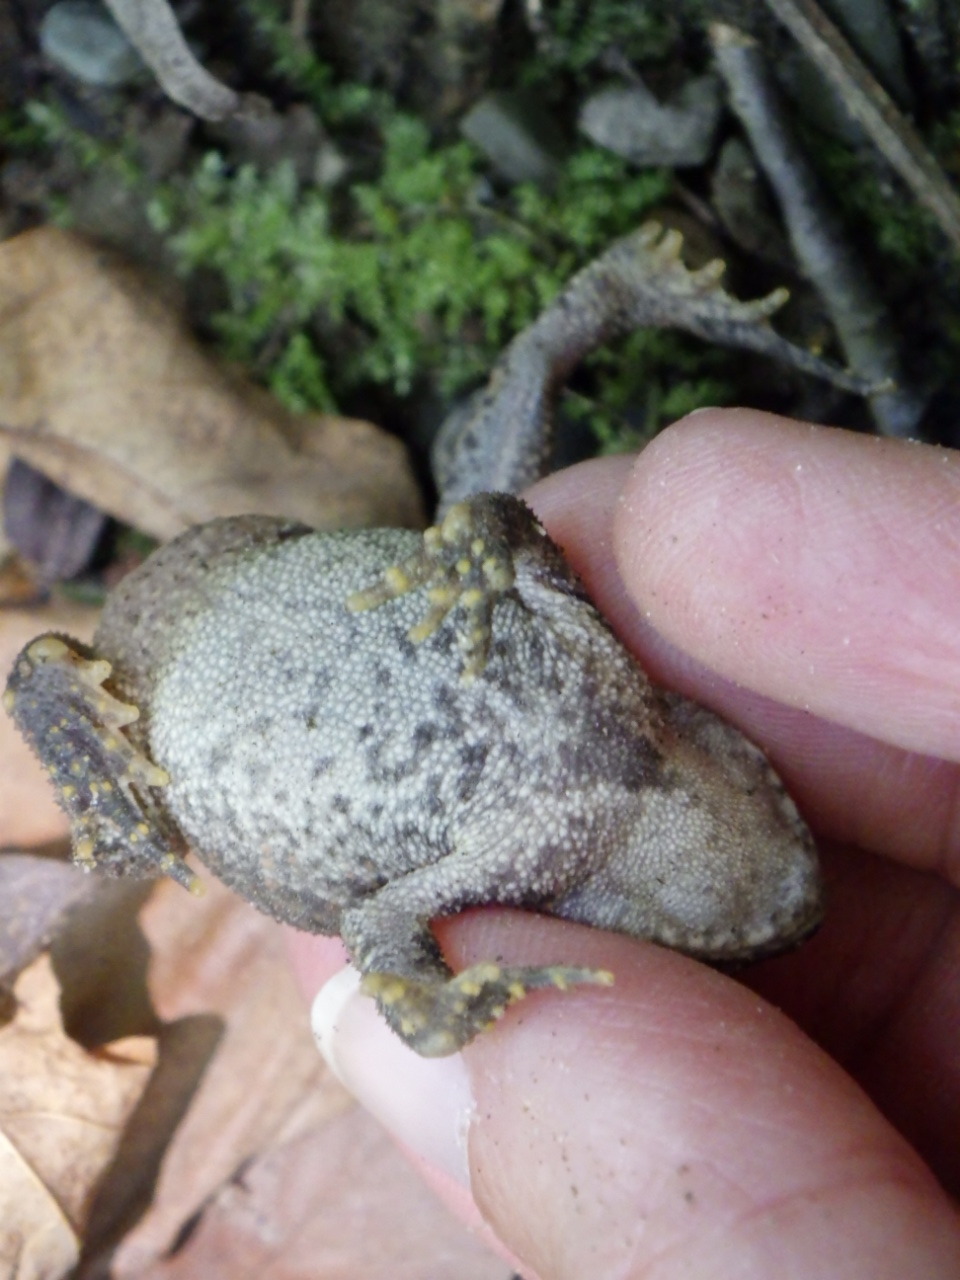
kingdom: Animalia
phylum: Chordata
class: Amphibia
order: Anura
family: Bufonidae
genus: Anaxyrus
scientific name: Anaxyrus americanus
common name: American toad
